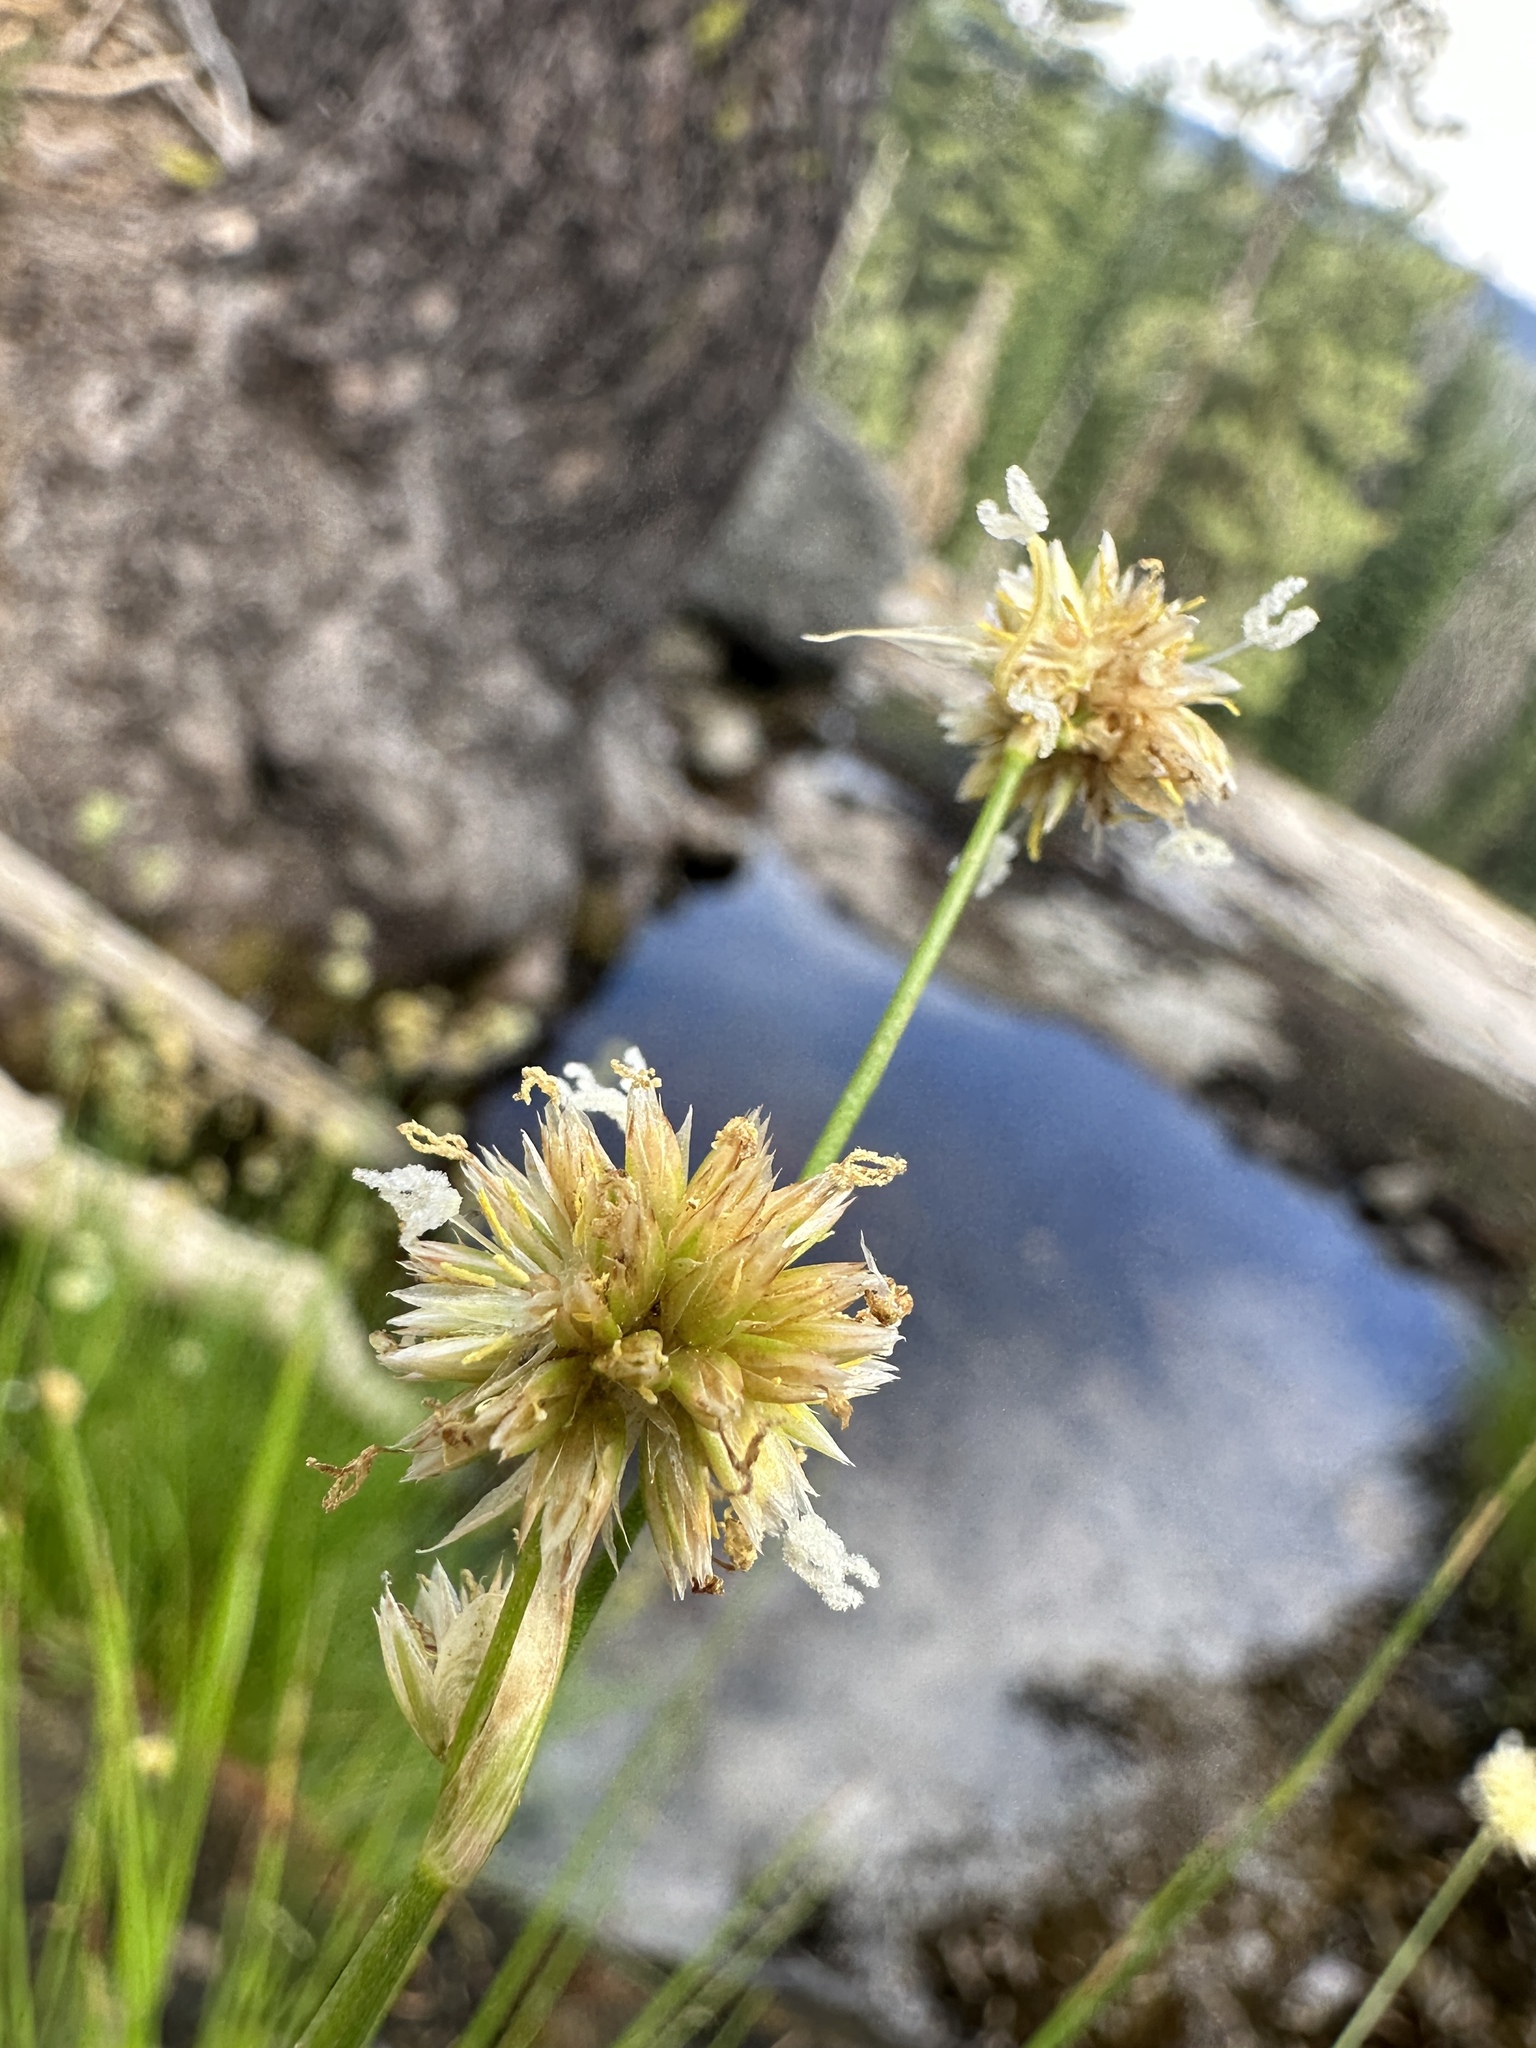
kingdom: Plantae
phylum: Tracheophyta
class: Liliopsida
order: Poales
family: Juncaceae
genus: Juncus
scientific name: Juncus chlorocephalus
